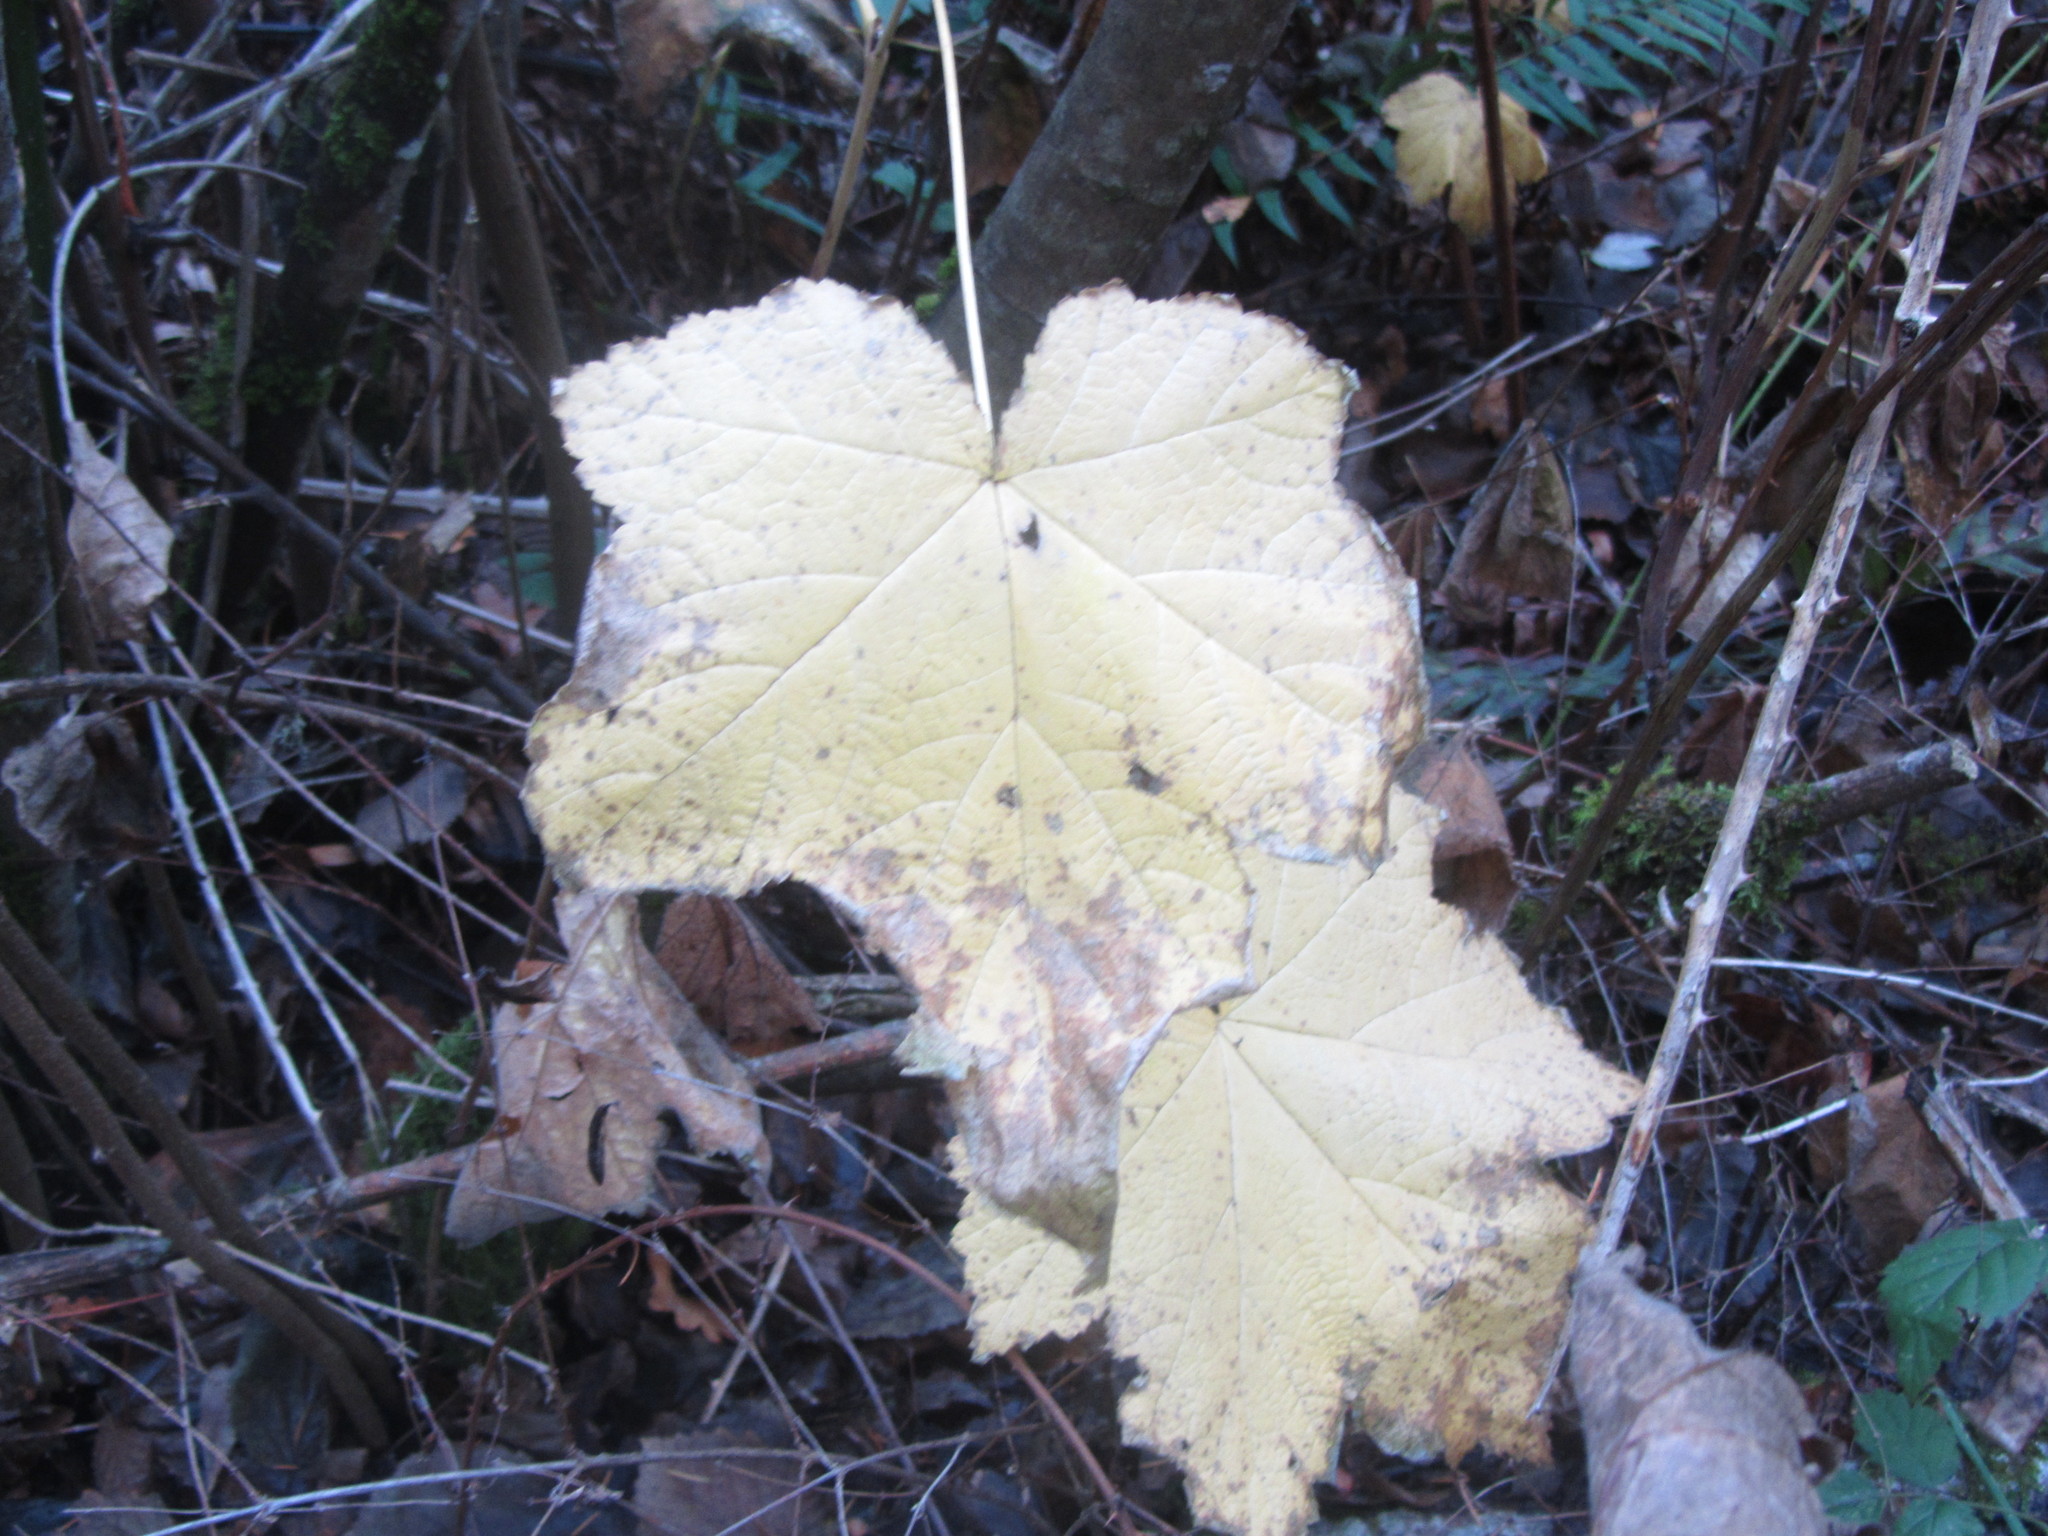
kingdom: Plantae
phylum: Tracheophyta
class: Magnoliopsida
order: Rosales
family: Rosaceae
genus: Rubus
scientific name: Rubus parviflorus
